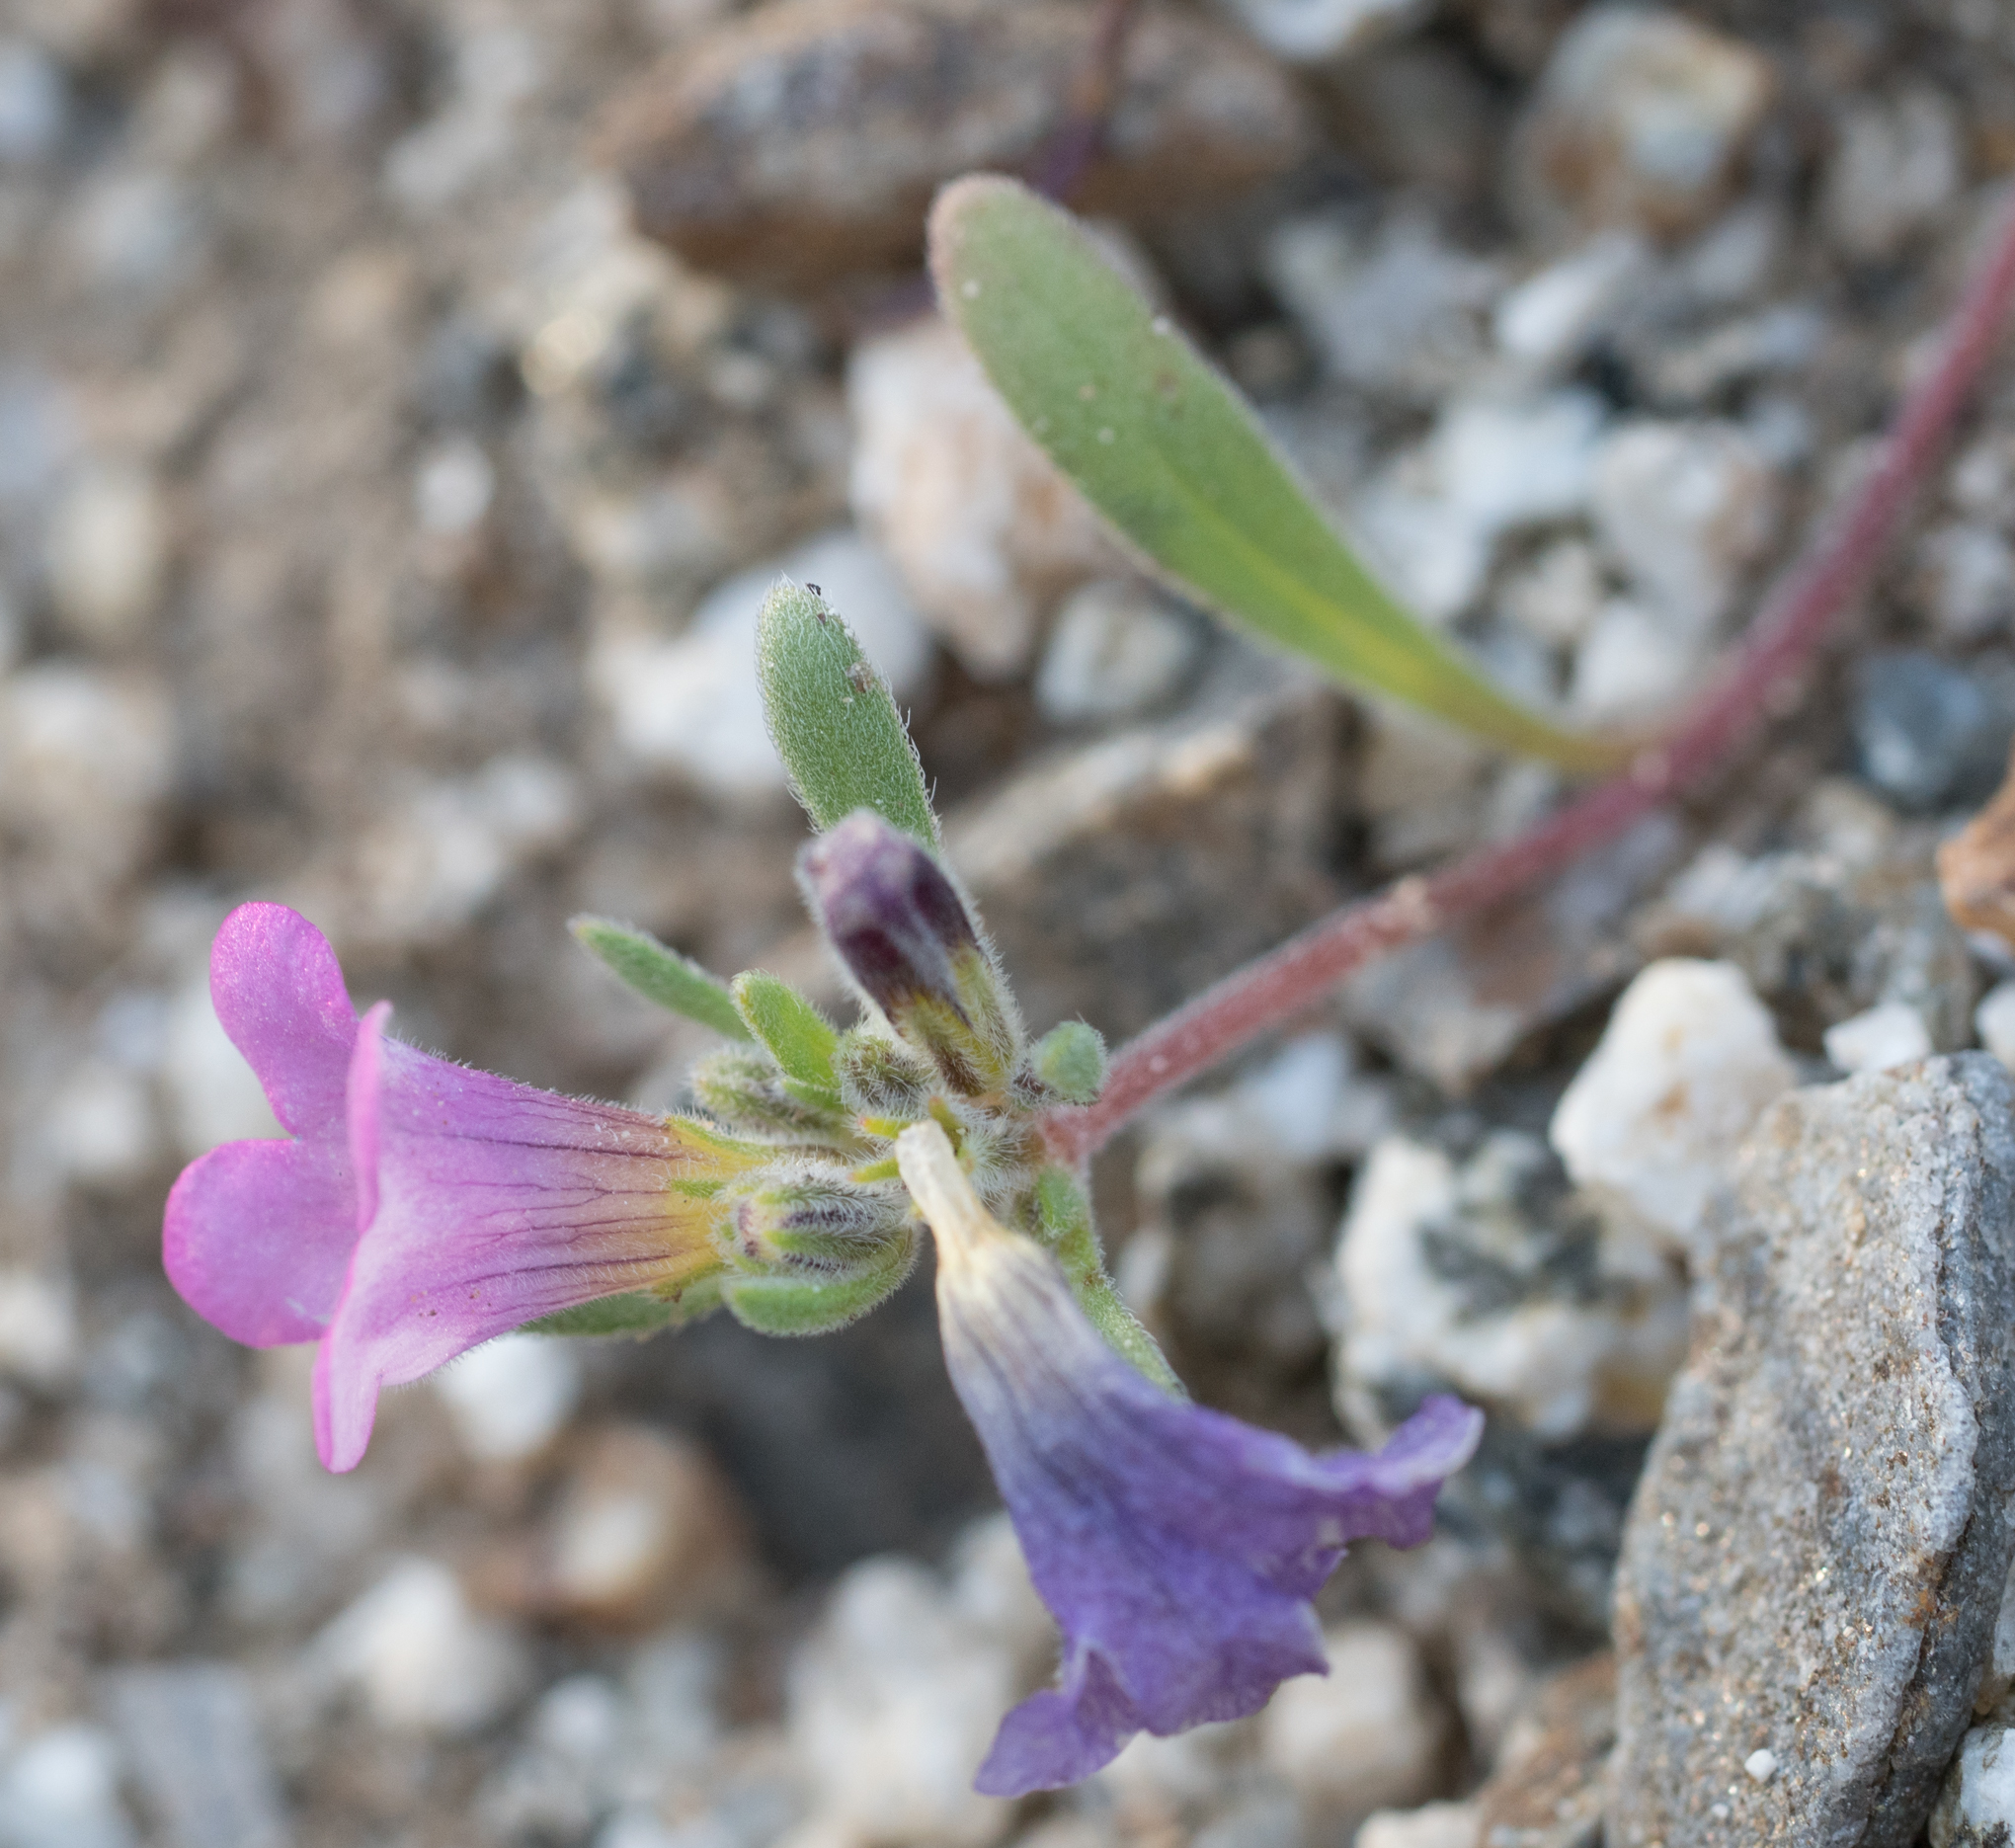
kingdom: Plantae
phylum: Tracheophyta
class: Magnoliopsida
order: Boraginales
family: Namaceae
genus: Nama
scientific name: Nama demissa
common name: Leafy nama
